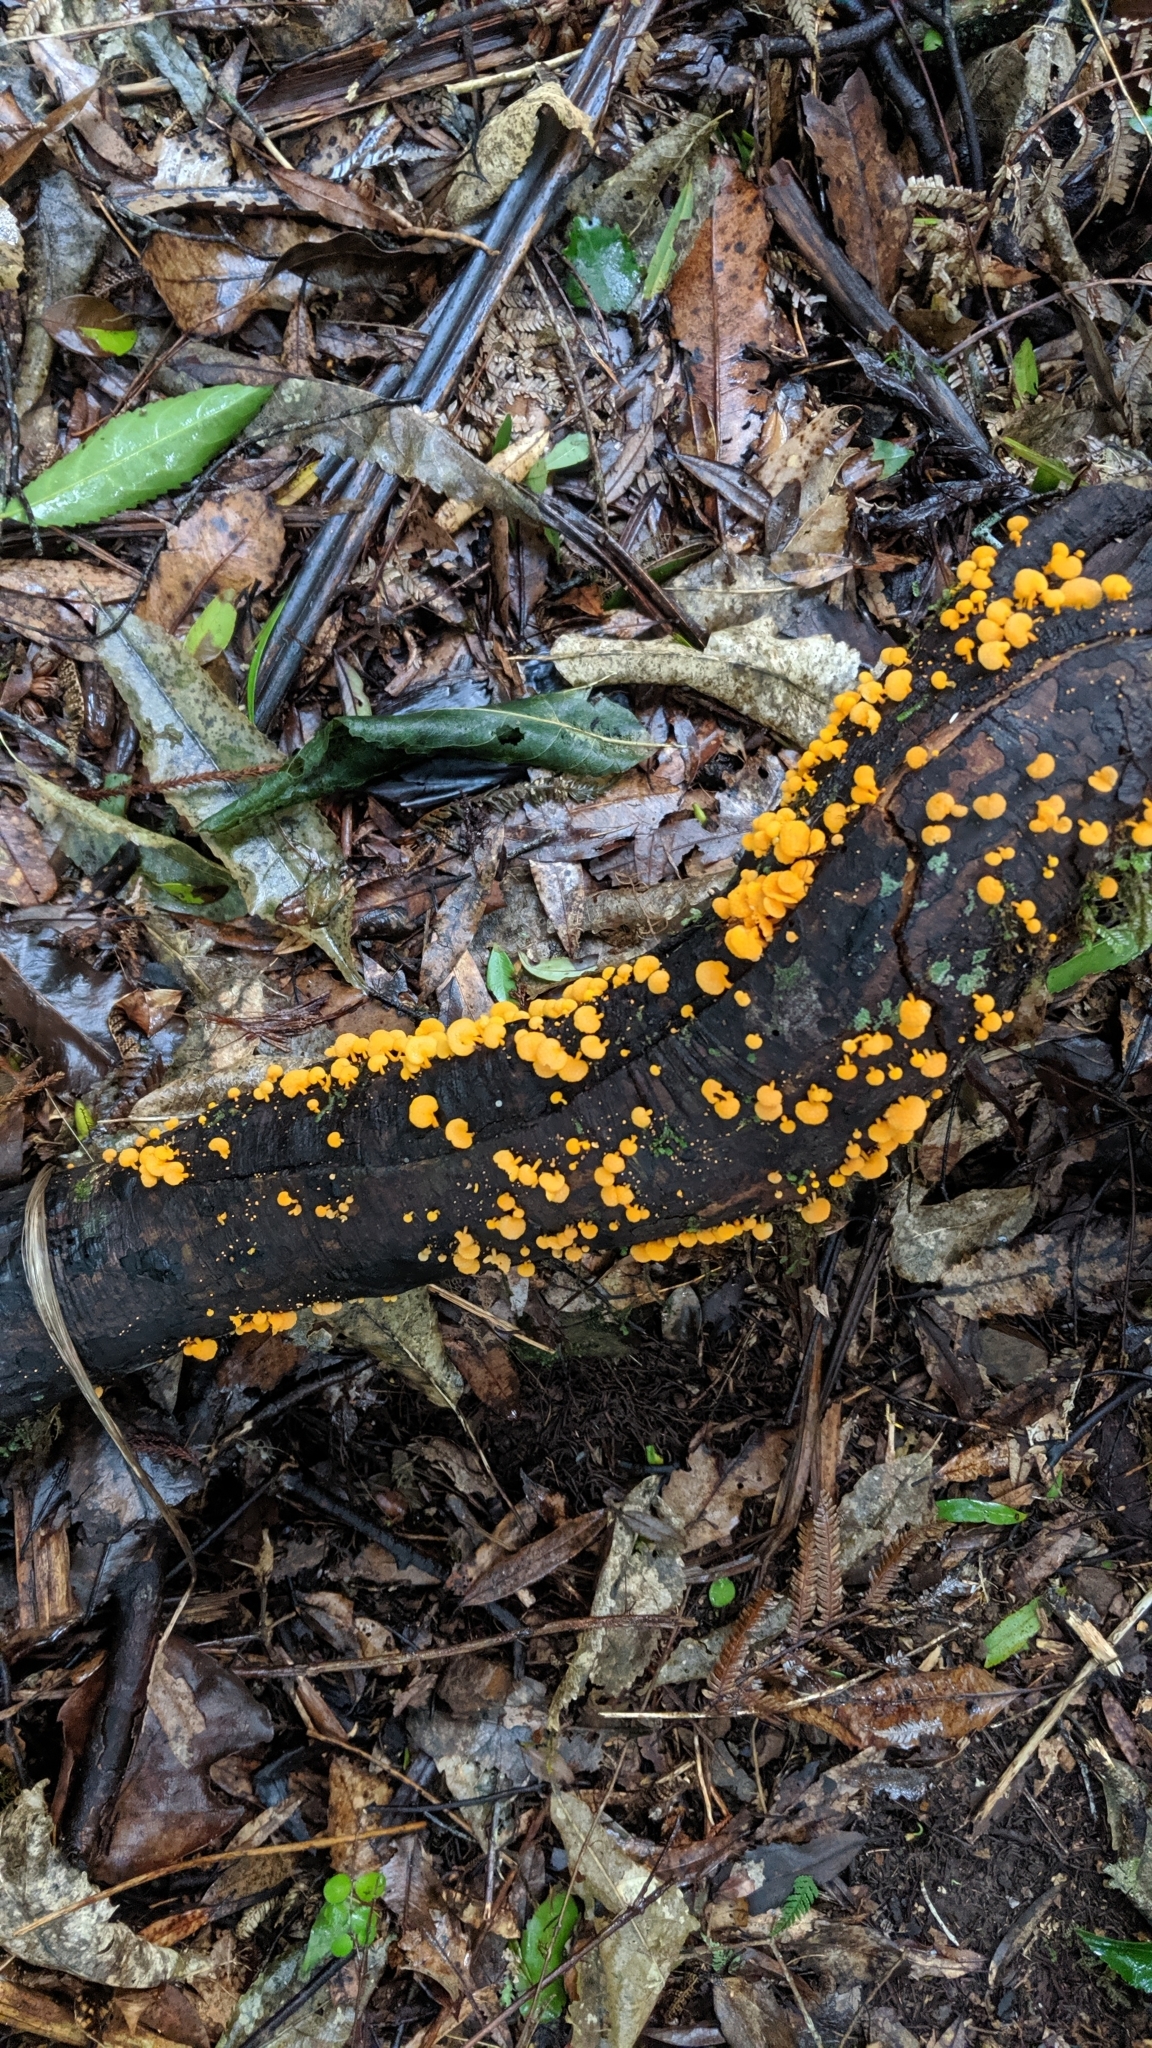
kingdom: Fungi
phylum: Basidiomycota
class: Agaricomycetes
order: Agaricales
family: Mycenaceae
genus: Favolaschia
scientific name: Favolaschia claudopus
